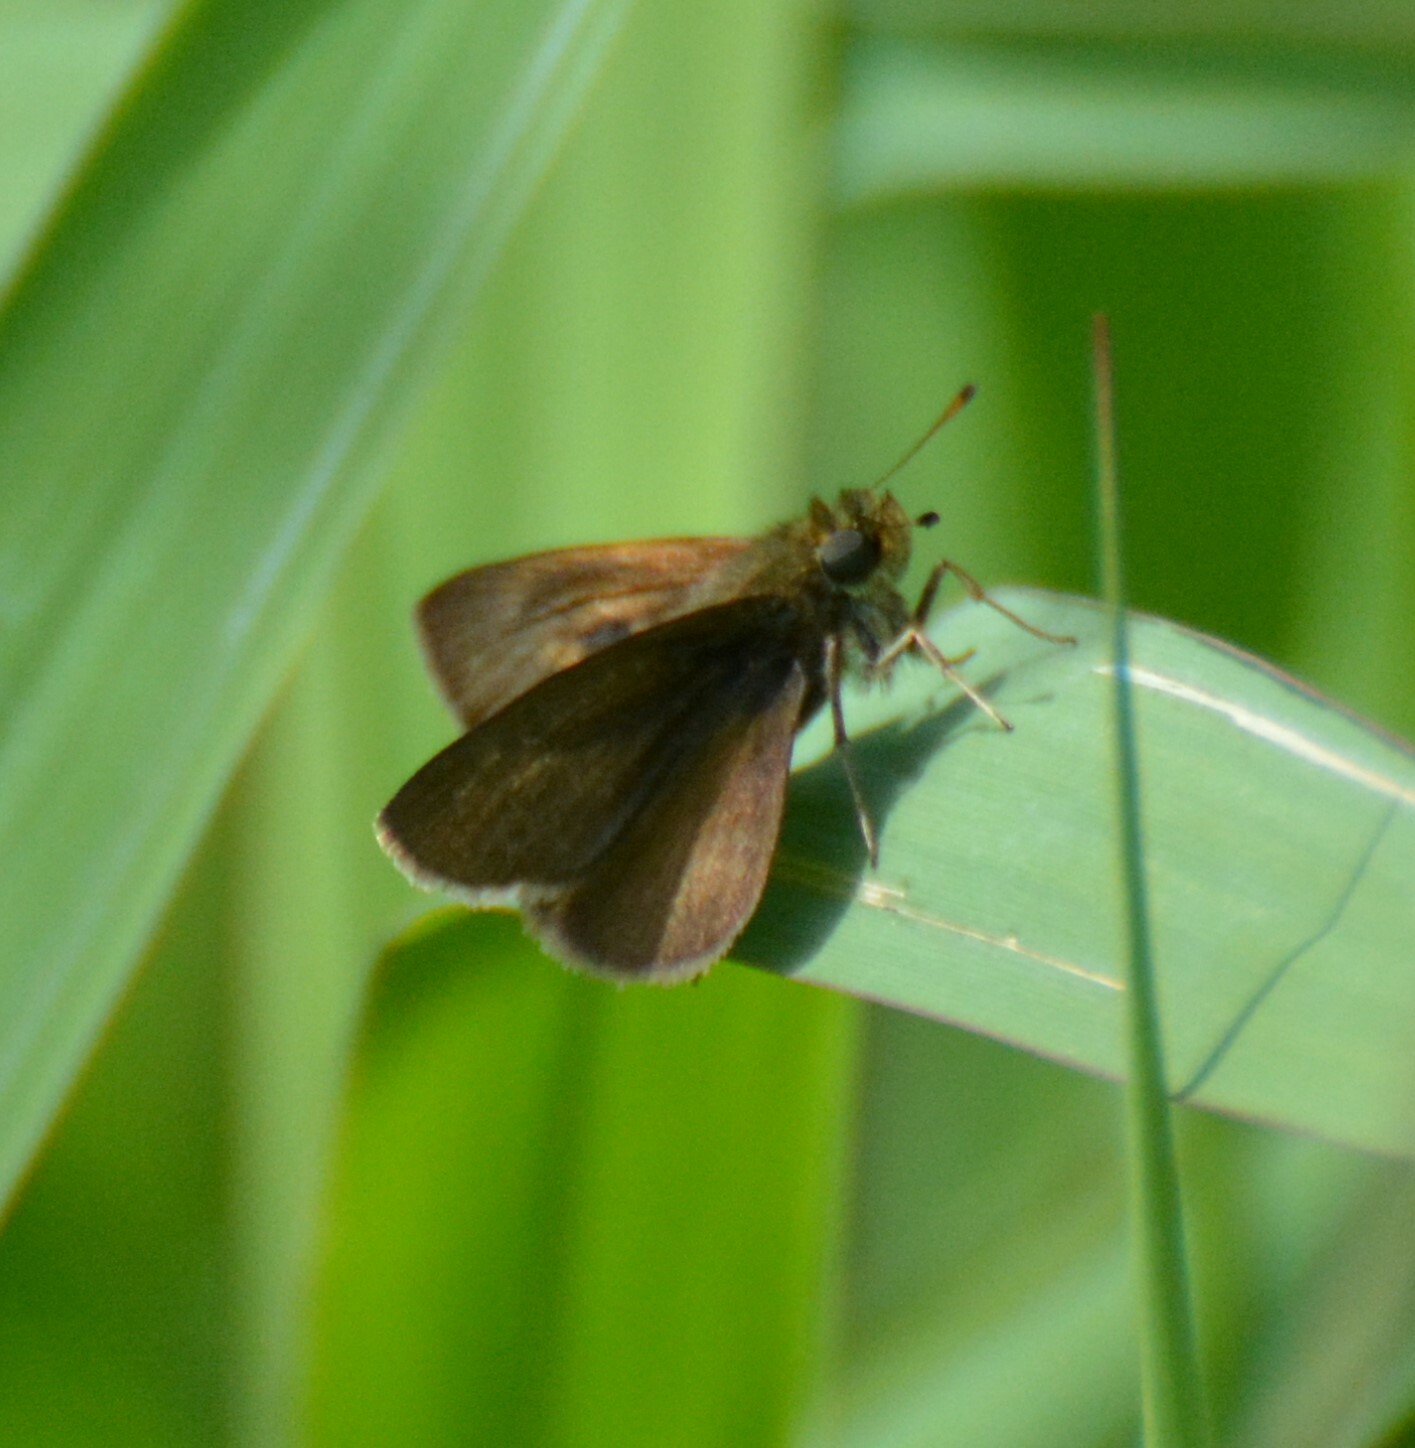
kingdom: Animalia
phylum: Arthropoda
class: Insecta
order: Lepidoptera
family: Hesperiidae
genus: Euphyes
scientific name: Euphyes vestris
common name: Dun skipper
